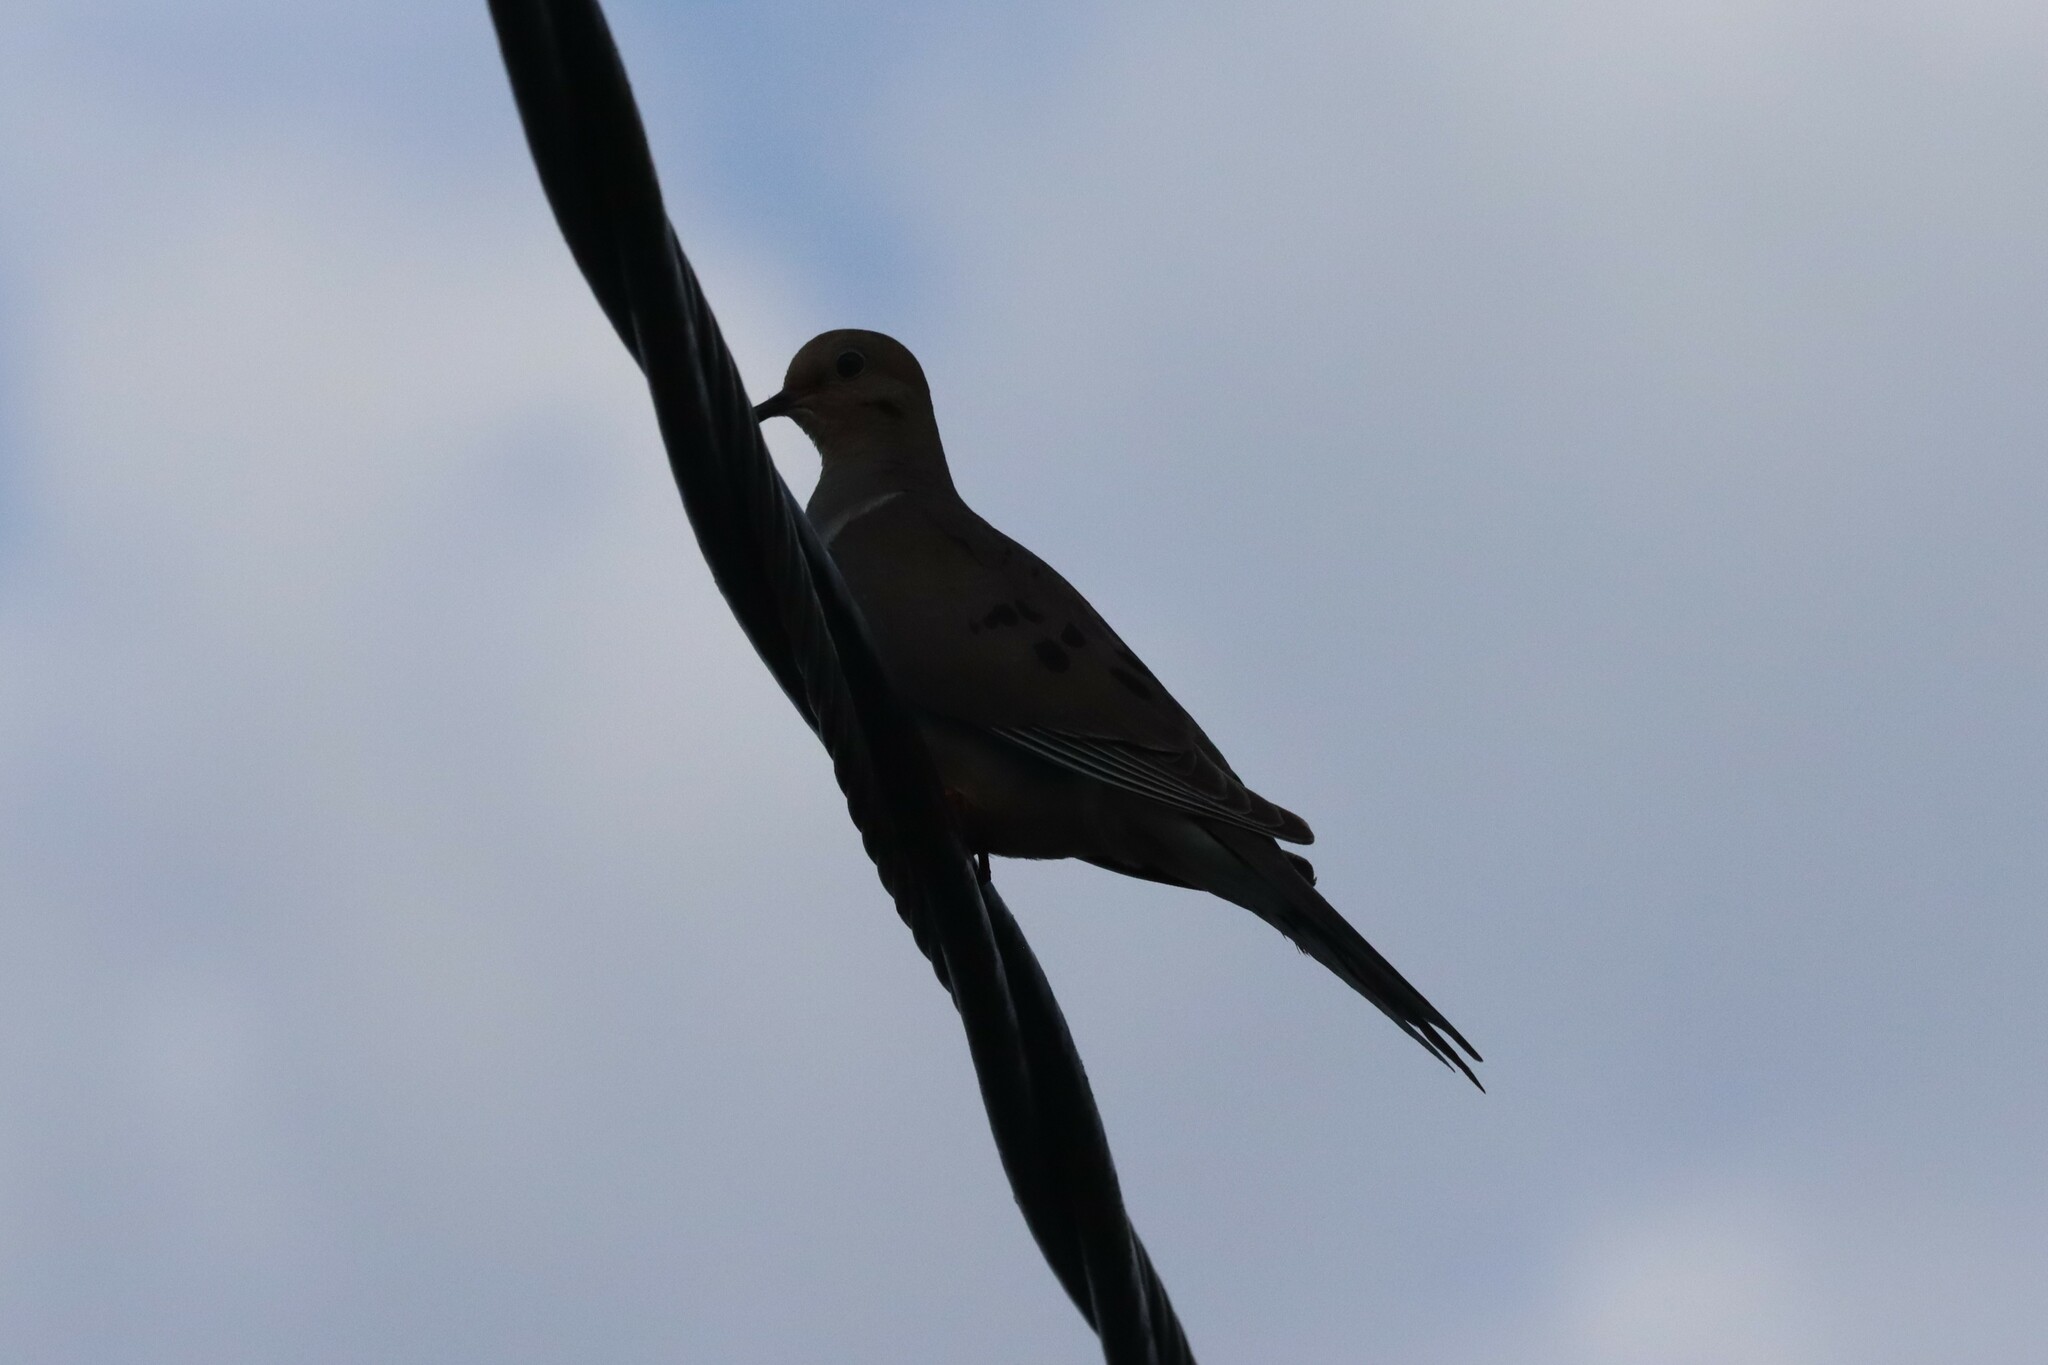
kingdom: Animalia
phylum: Chordata
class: Aves
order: Columbiformes
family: Columbidae
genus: Zenaida
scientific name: Zenaida macroura
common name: Mourning dove
